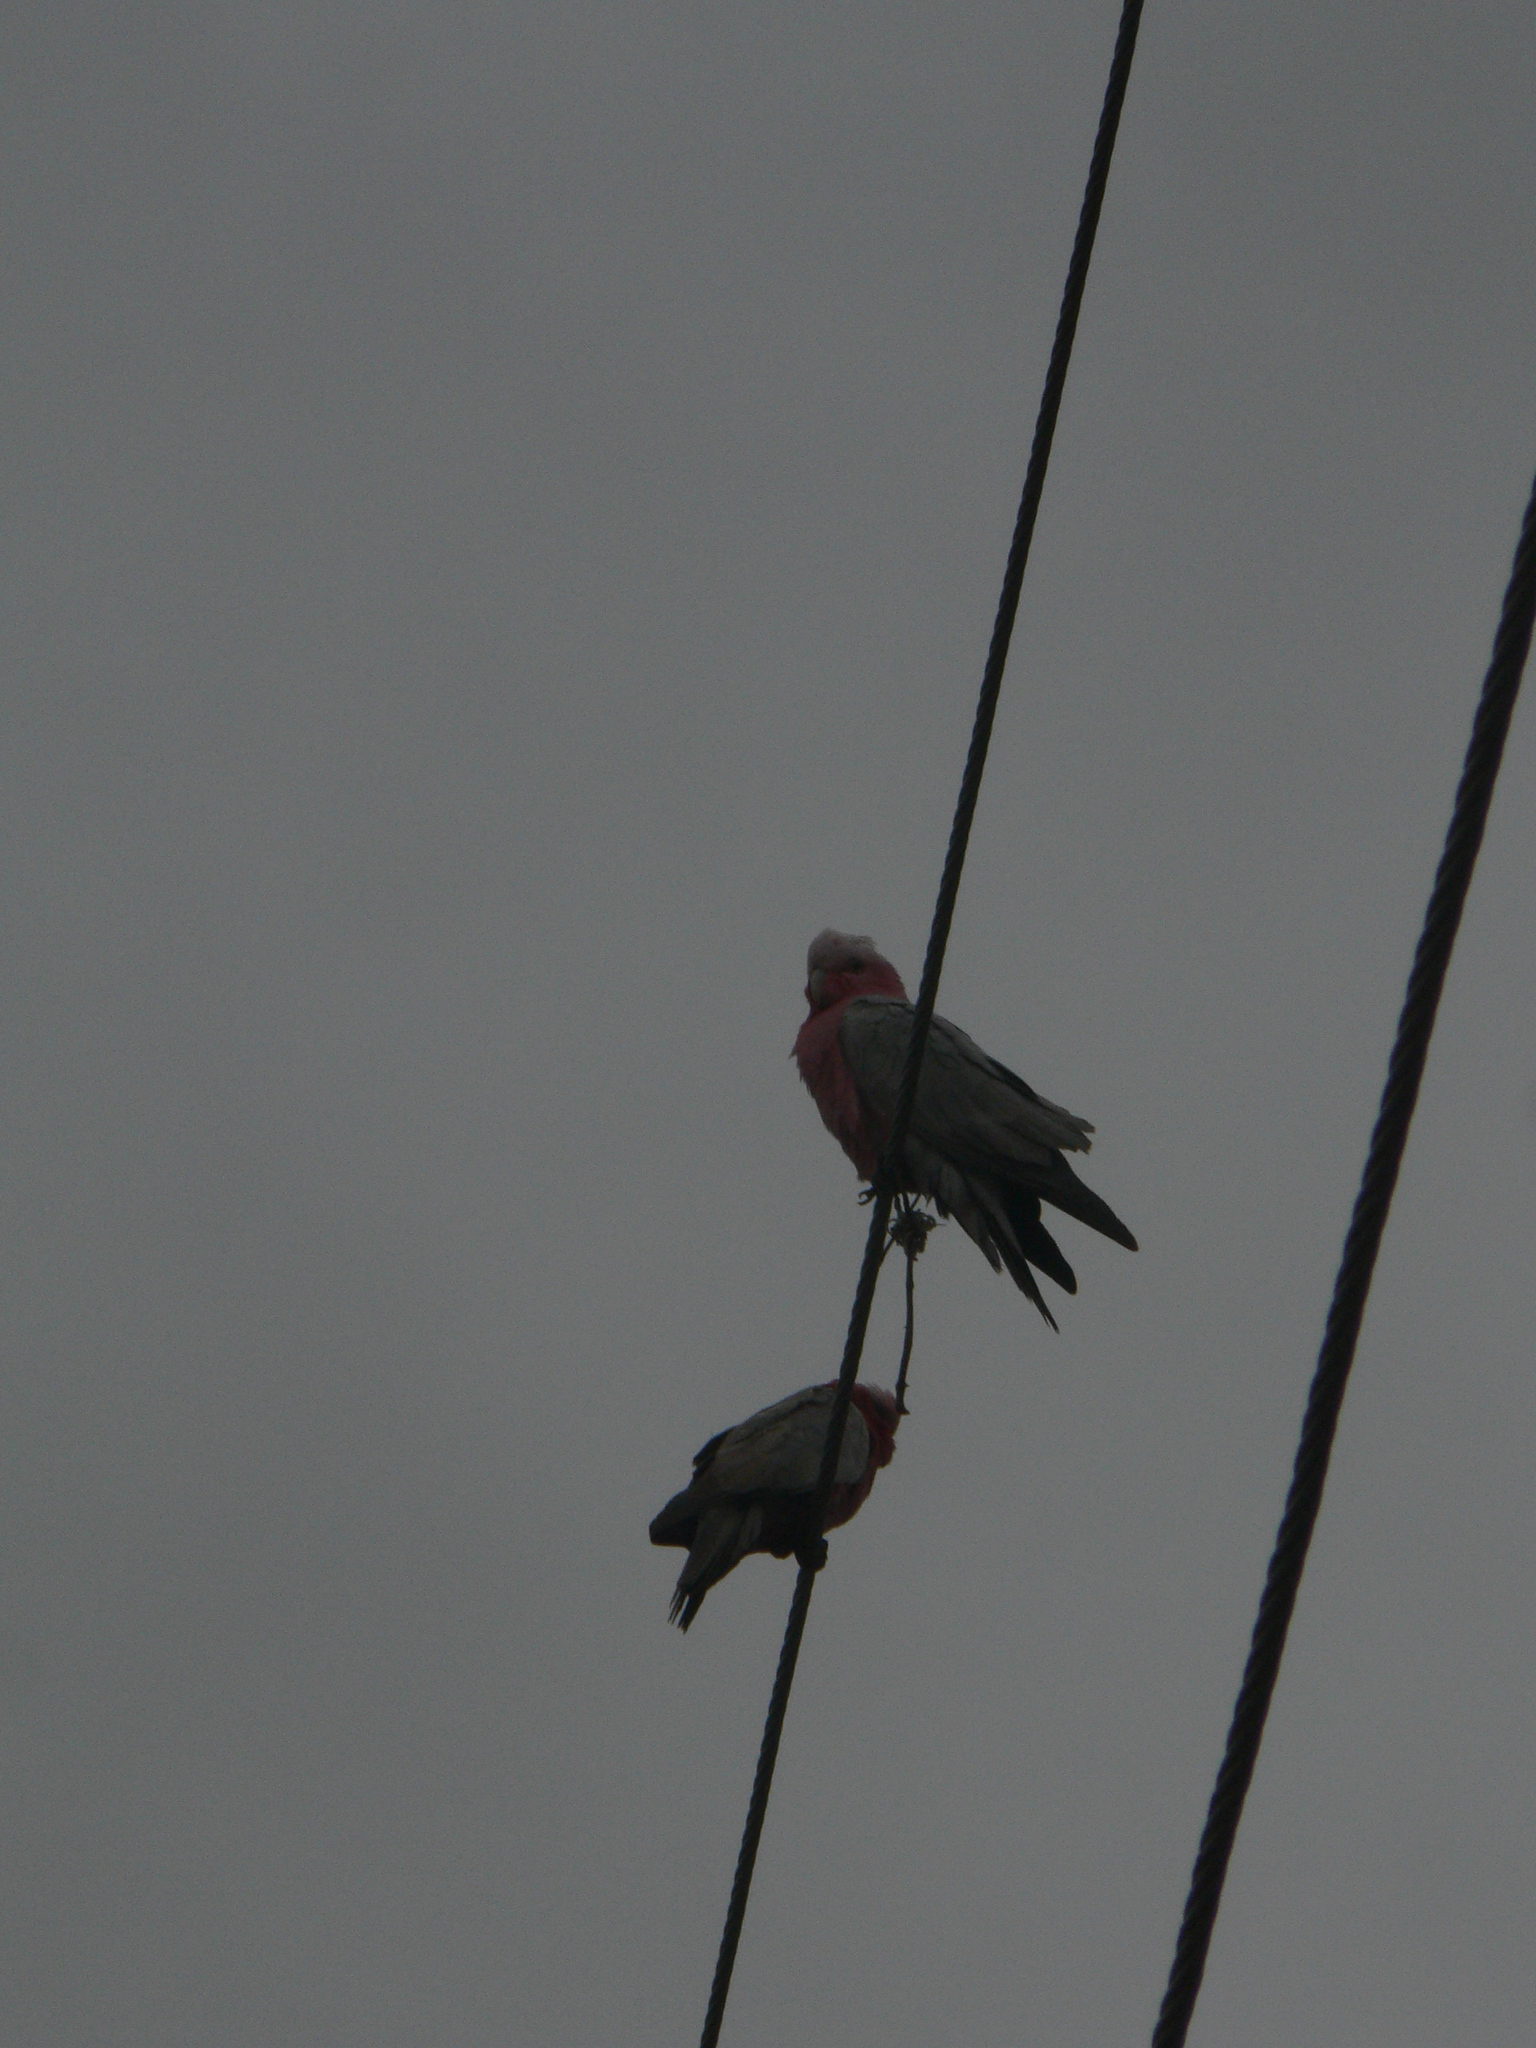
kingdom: Animalia
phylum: Chordata
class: Aves
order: Psittaciformes
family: Psittacidae
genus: Eolophus
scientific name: Eolophus roseicapilla
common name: Galah
